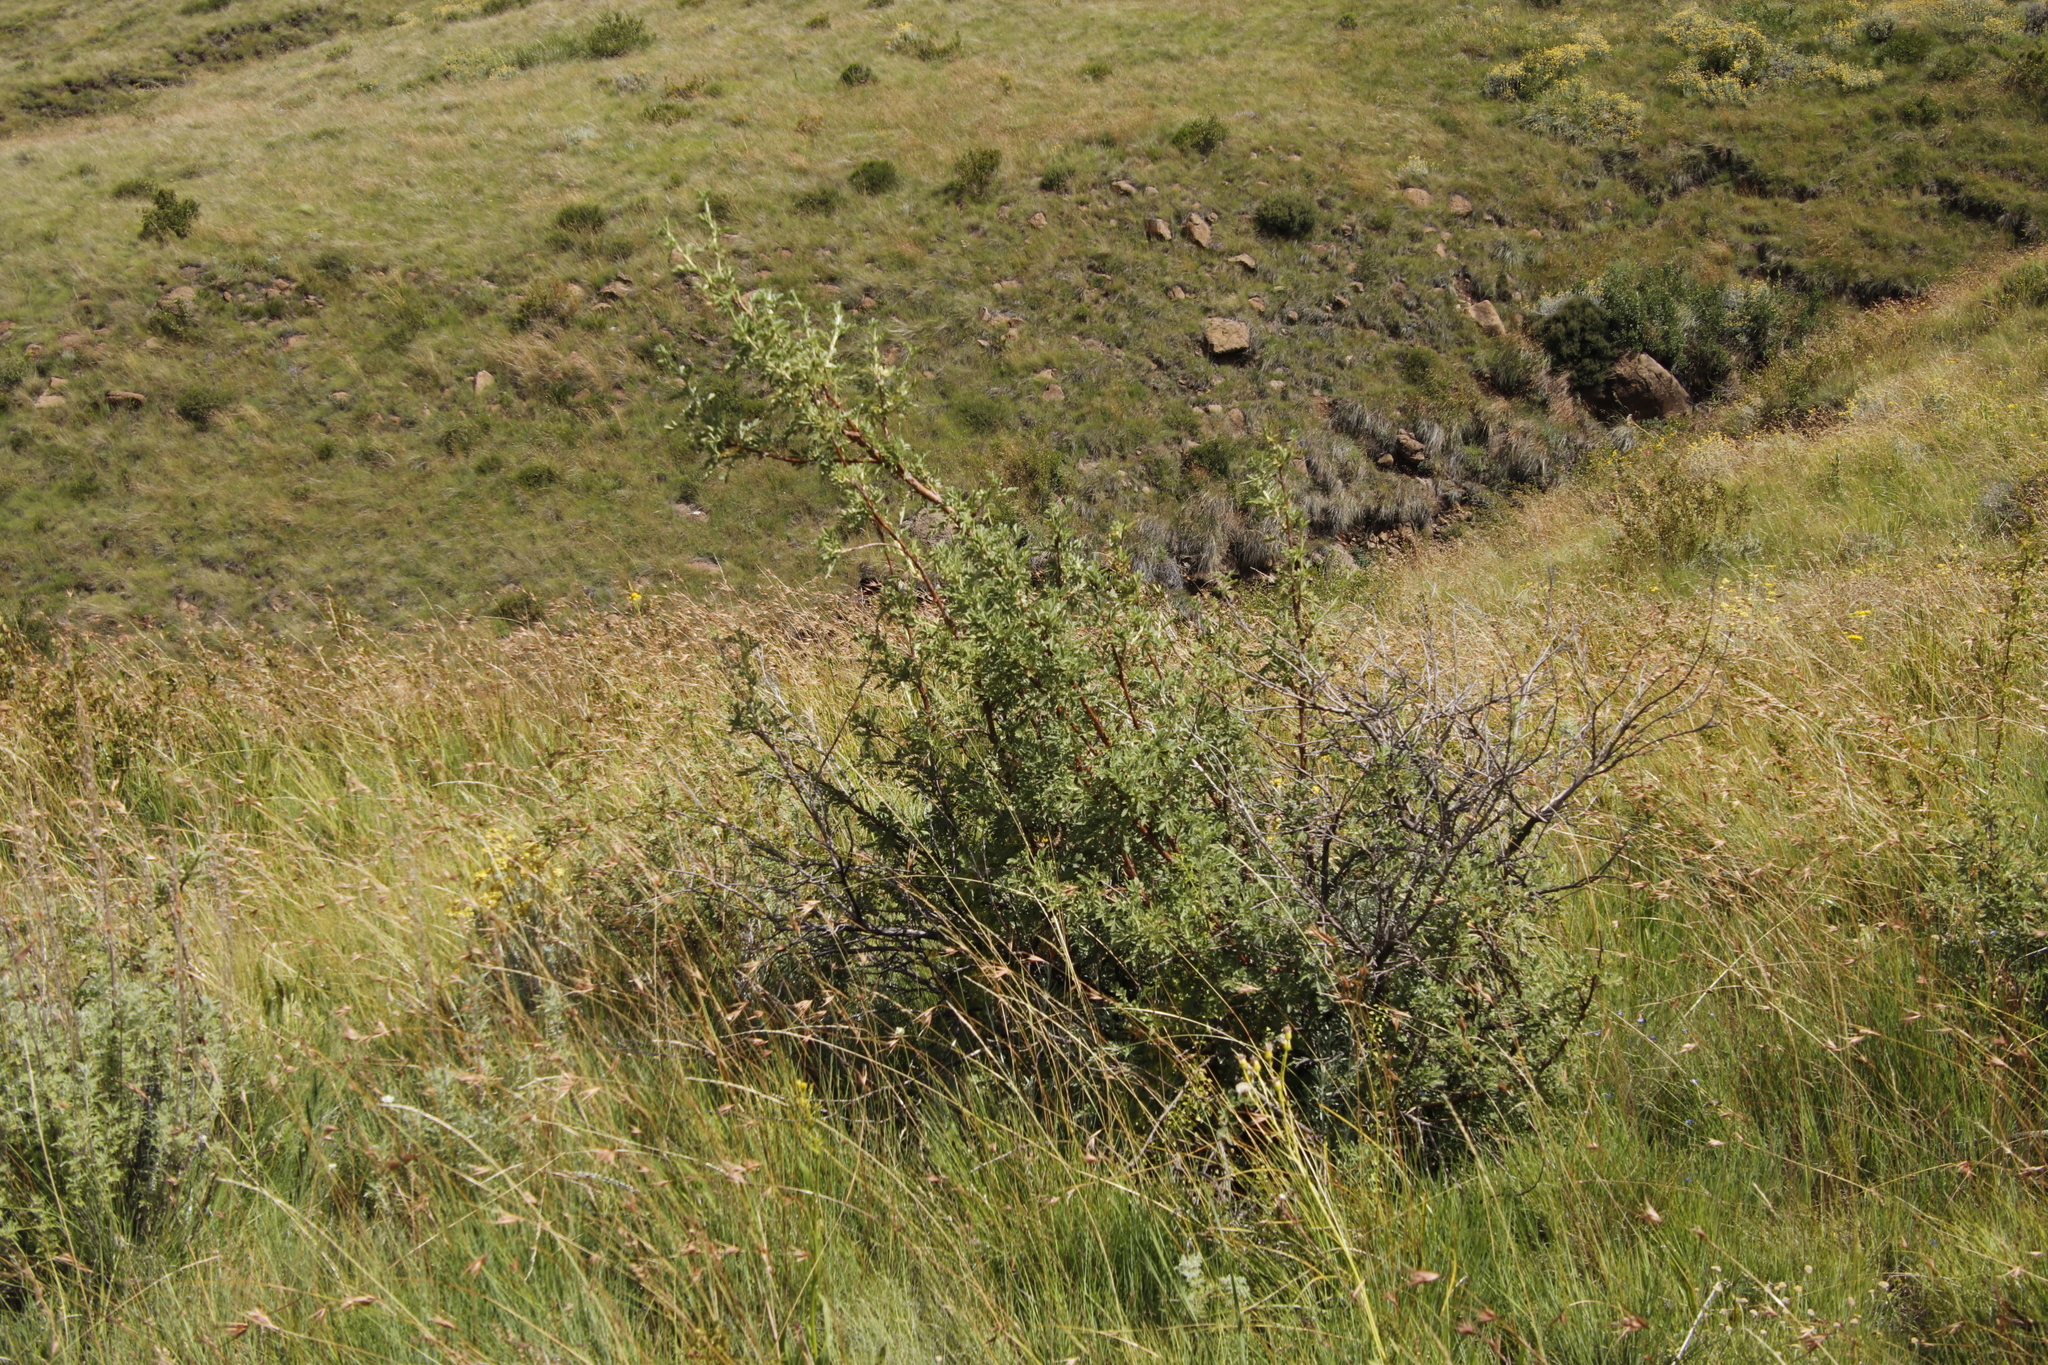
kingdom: Plantae
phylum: Tracheophyta
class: Magnoliopsida
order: Rosales
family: Rosaceae
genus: Leucosidea
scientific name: Leucosidea sericea
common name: Oldwood
